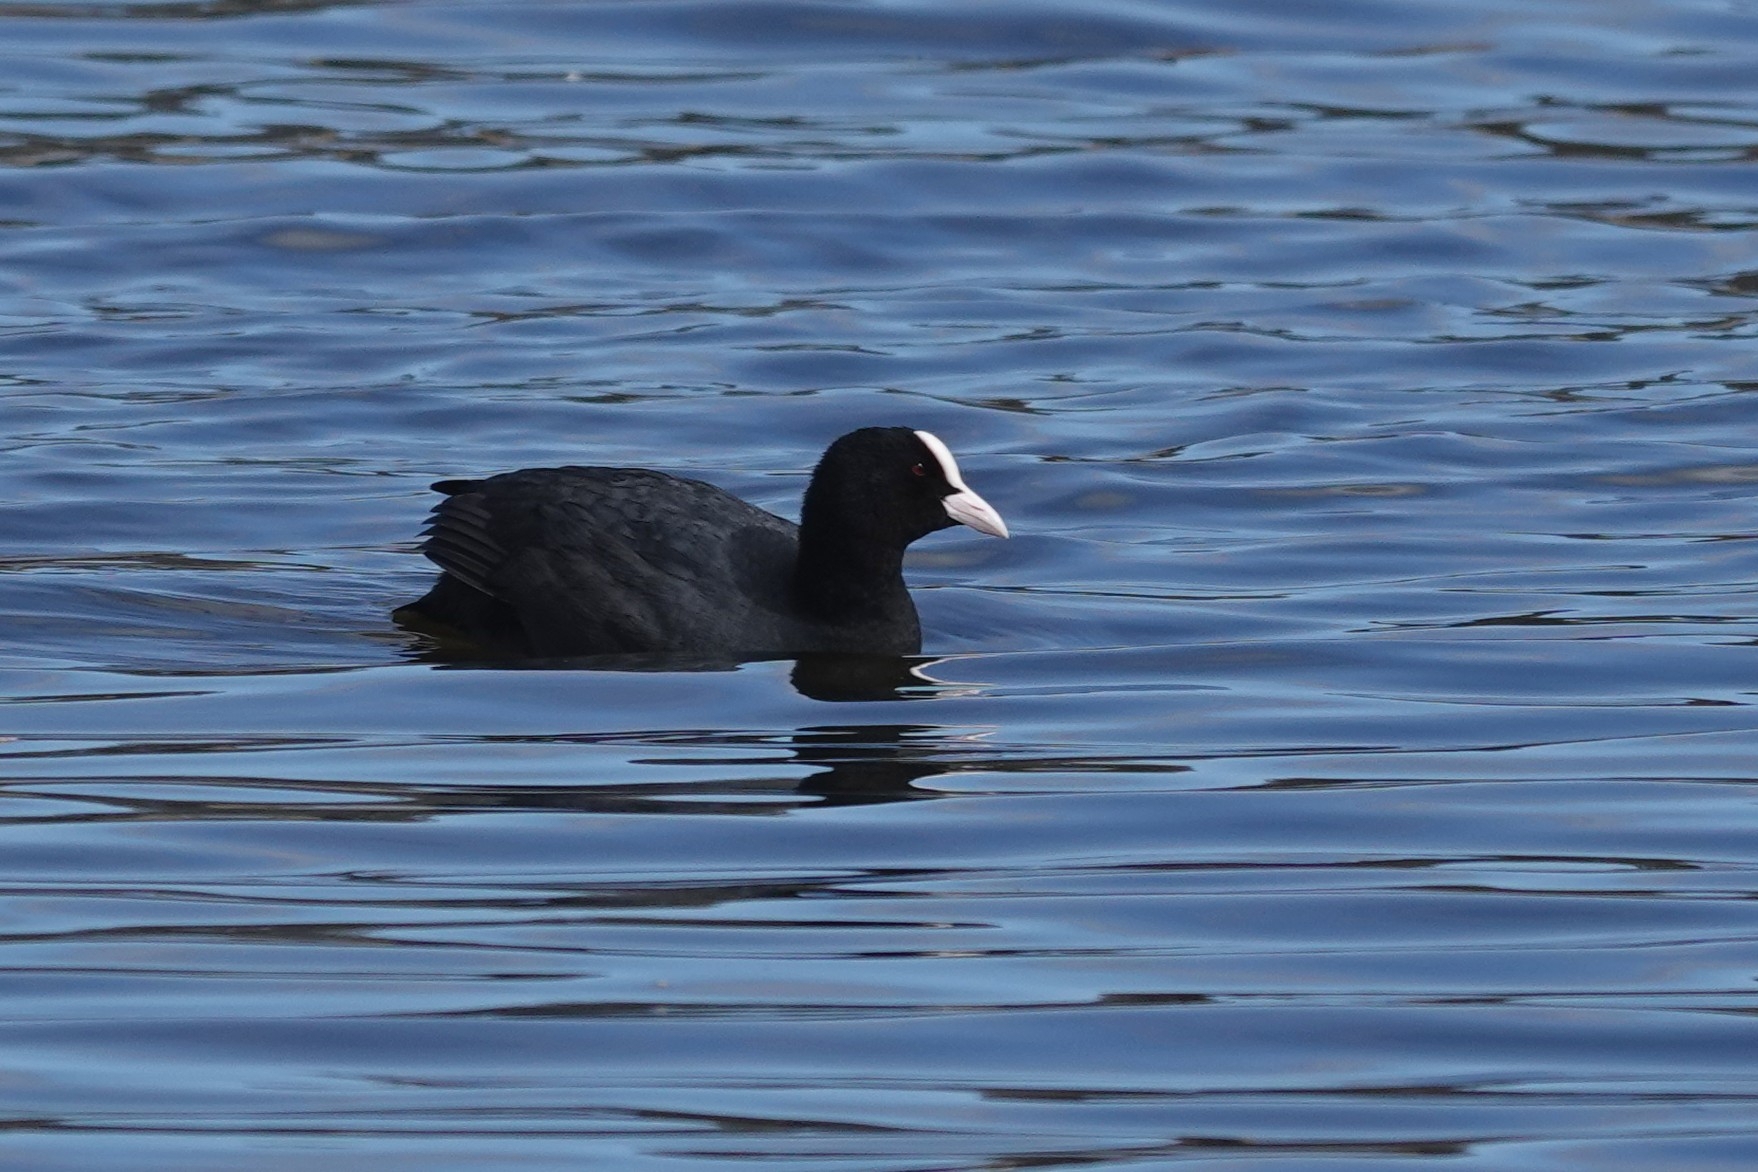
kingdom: Animalia
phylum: Chordata
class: Aves
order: Gruiformes
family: Rallidae
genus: Fulica
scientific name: Fulica atra
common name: Eurasian coot
